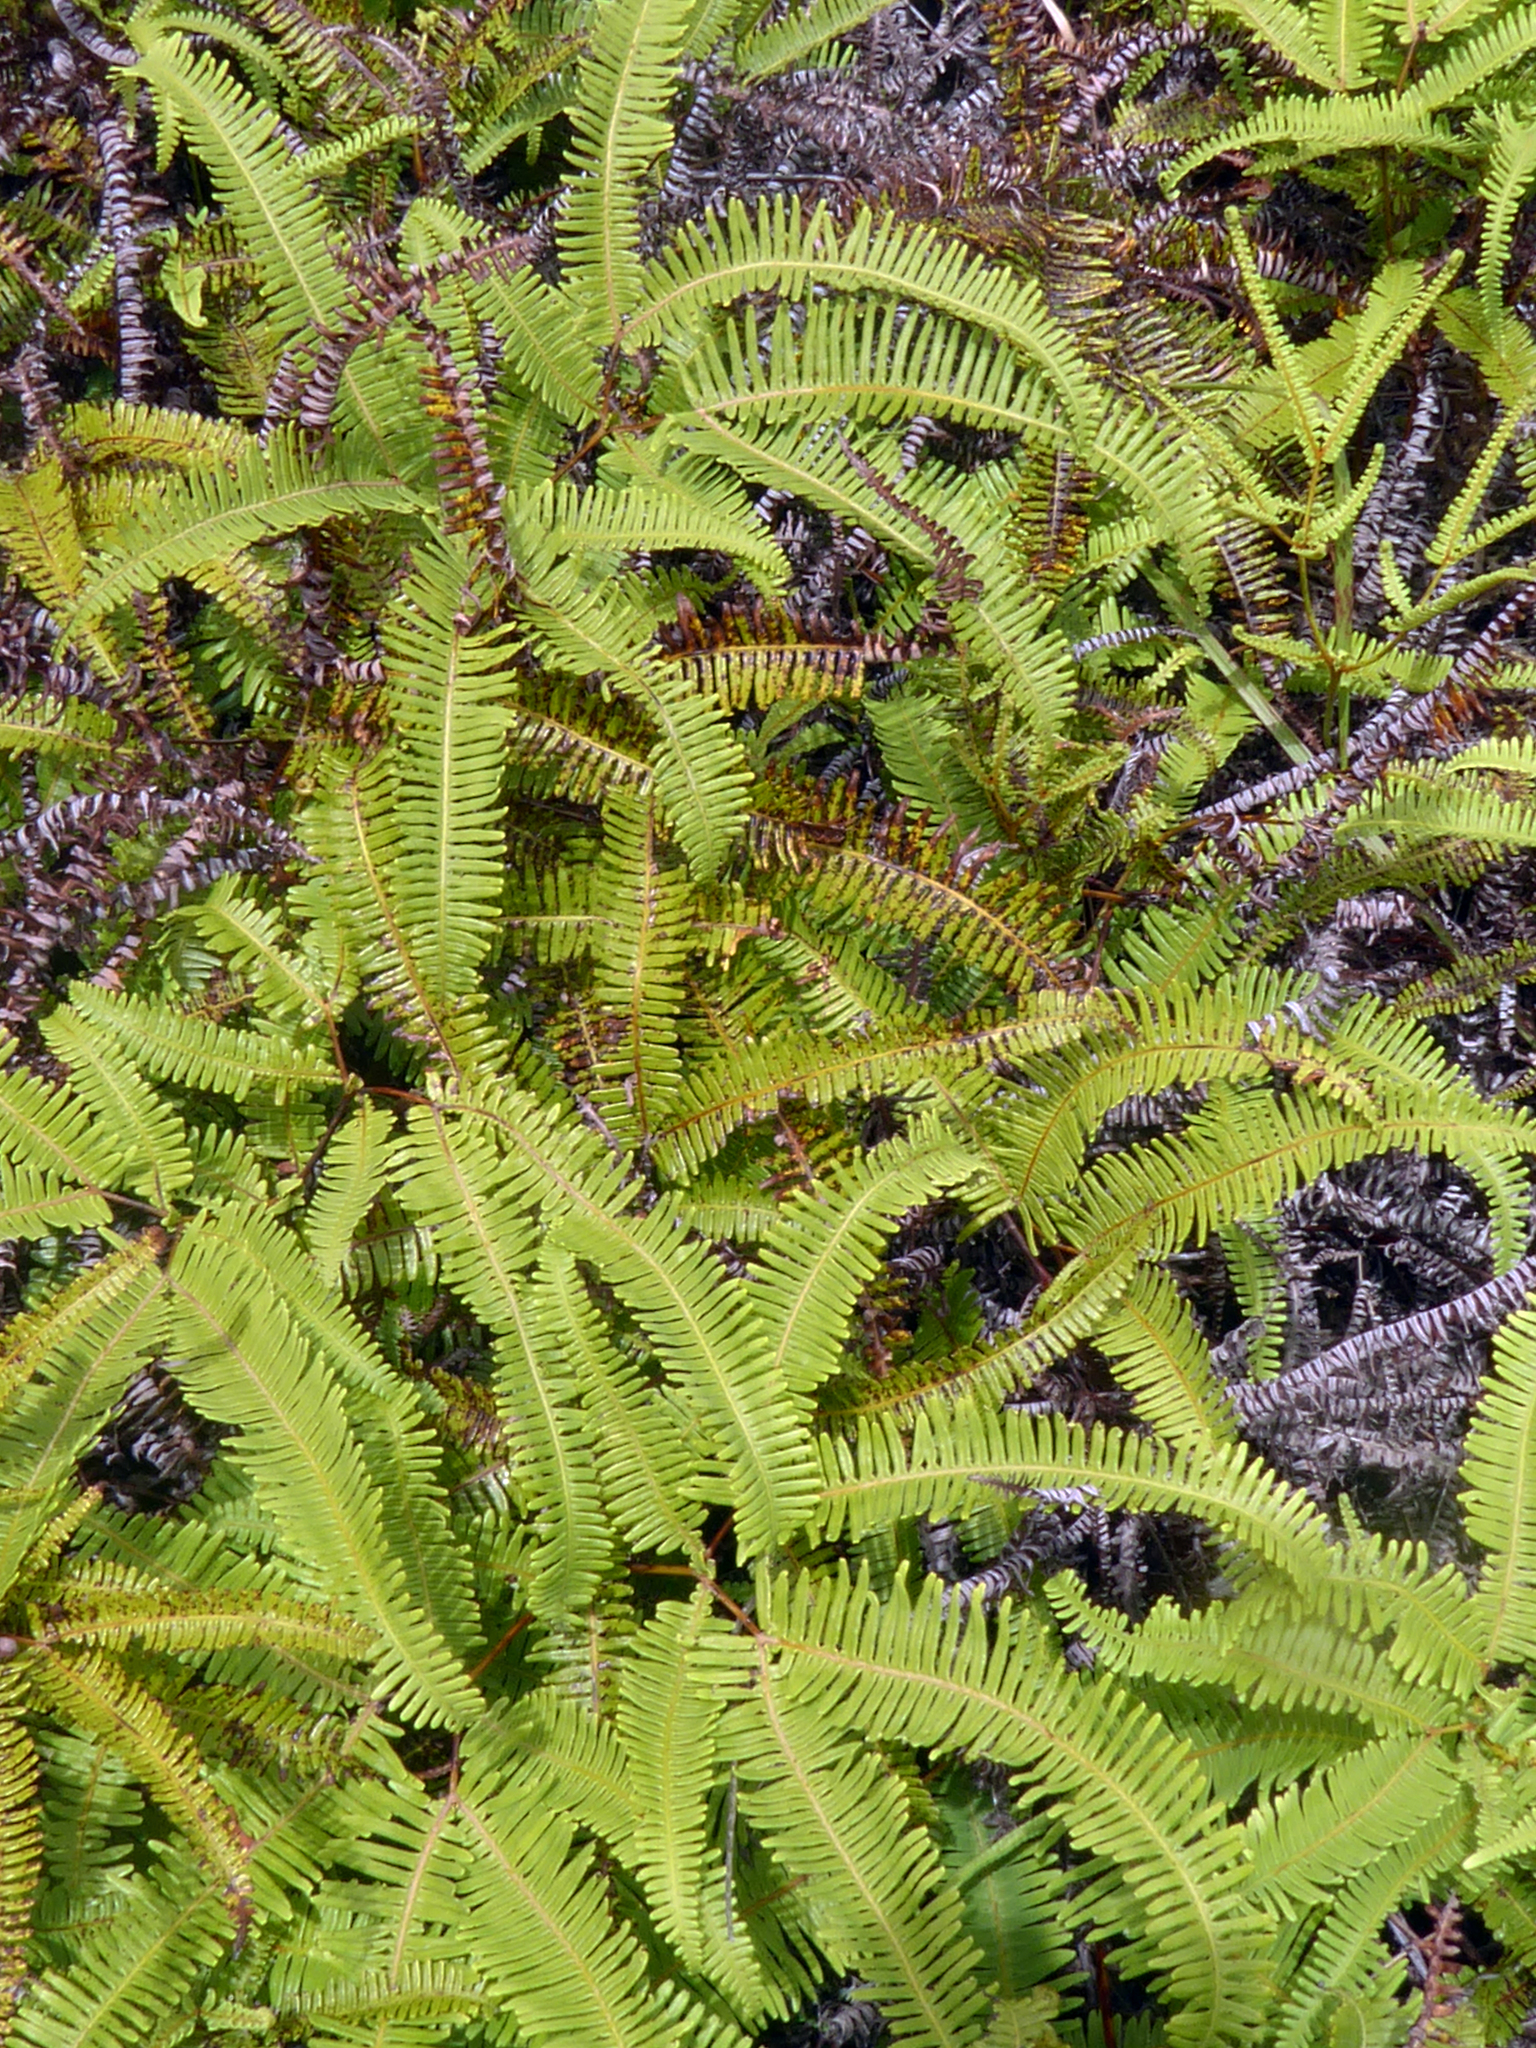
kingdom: Plantae
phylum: Tracheophyta
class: Polypodiopsida
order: Gleicheniales
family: Gleicheniaceae
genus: Dicranopteris
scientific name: Dicranopteris linearis
